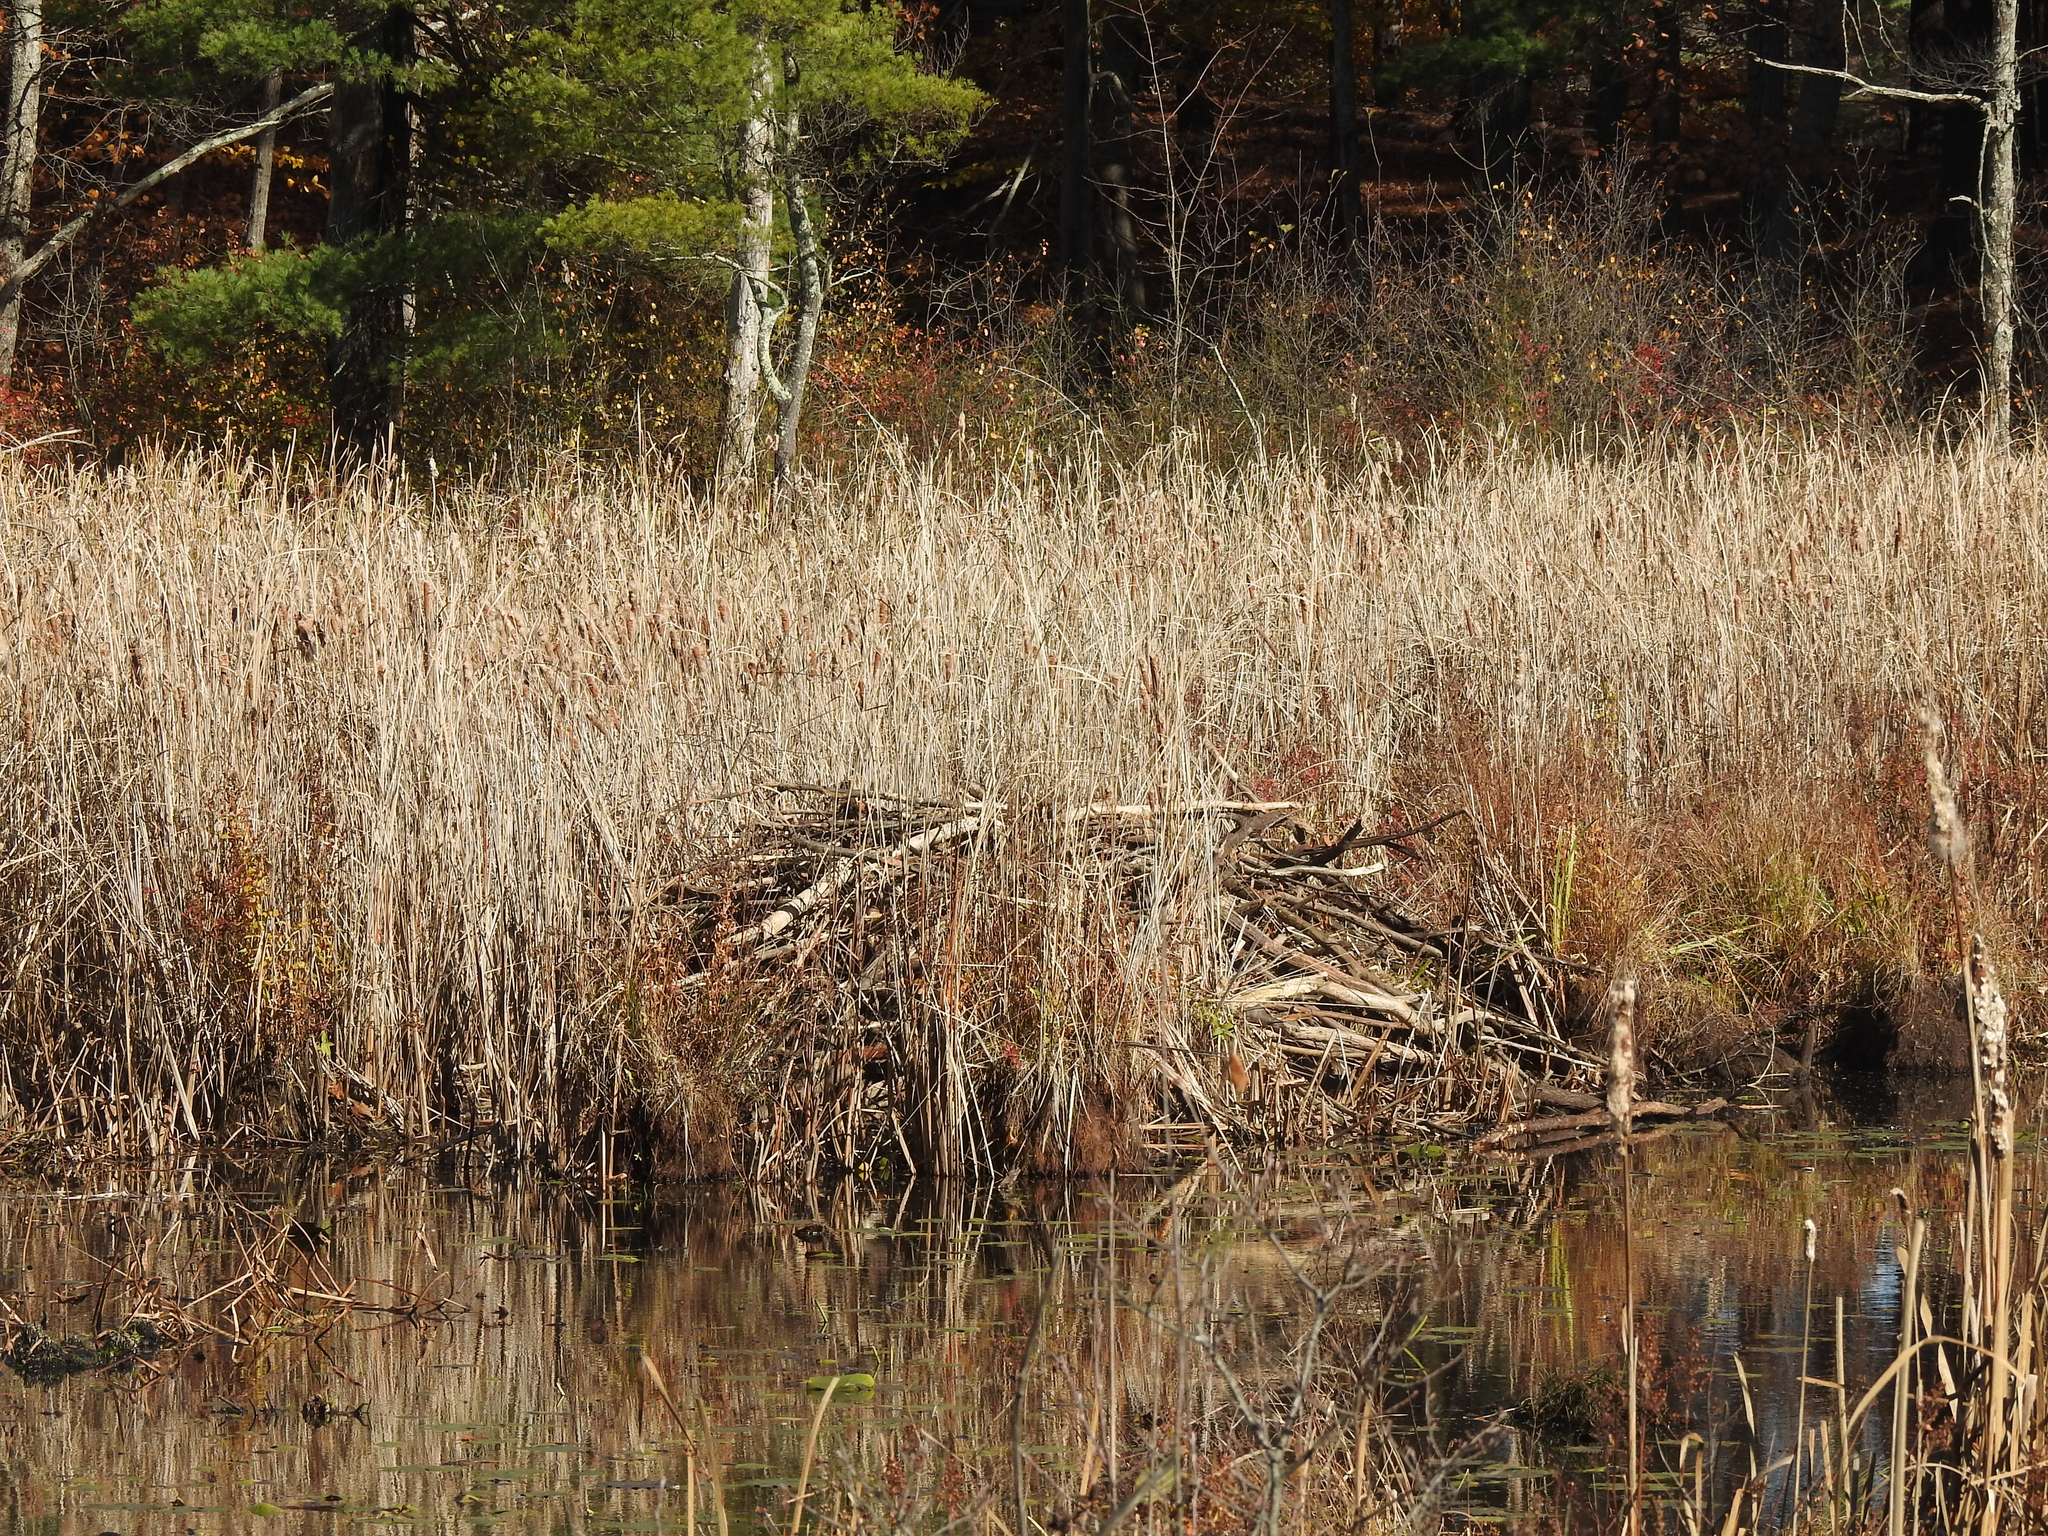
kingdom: Animalia
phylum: Chordata
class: Mammalia
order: Rodentia
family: Castoridae
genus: Castor
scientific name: Castor canadensis
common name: American beaver
